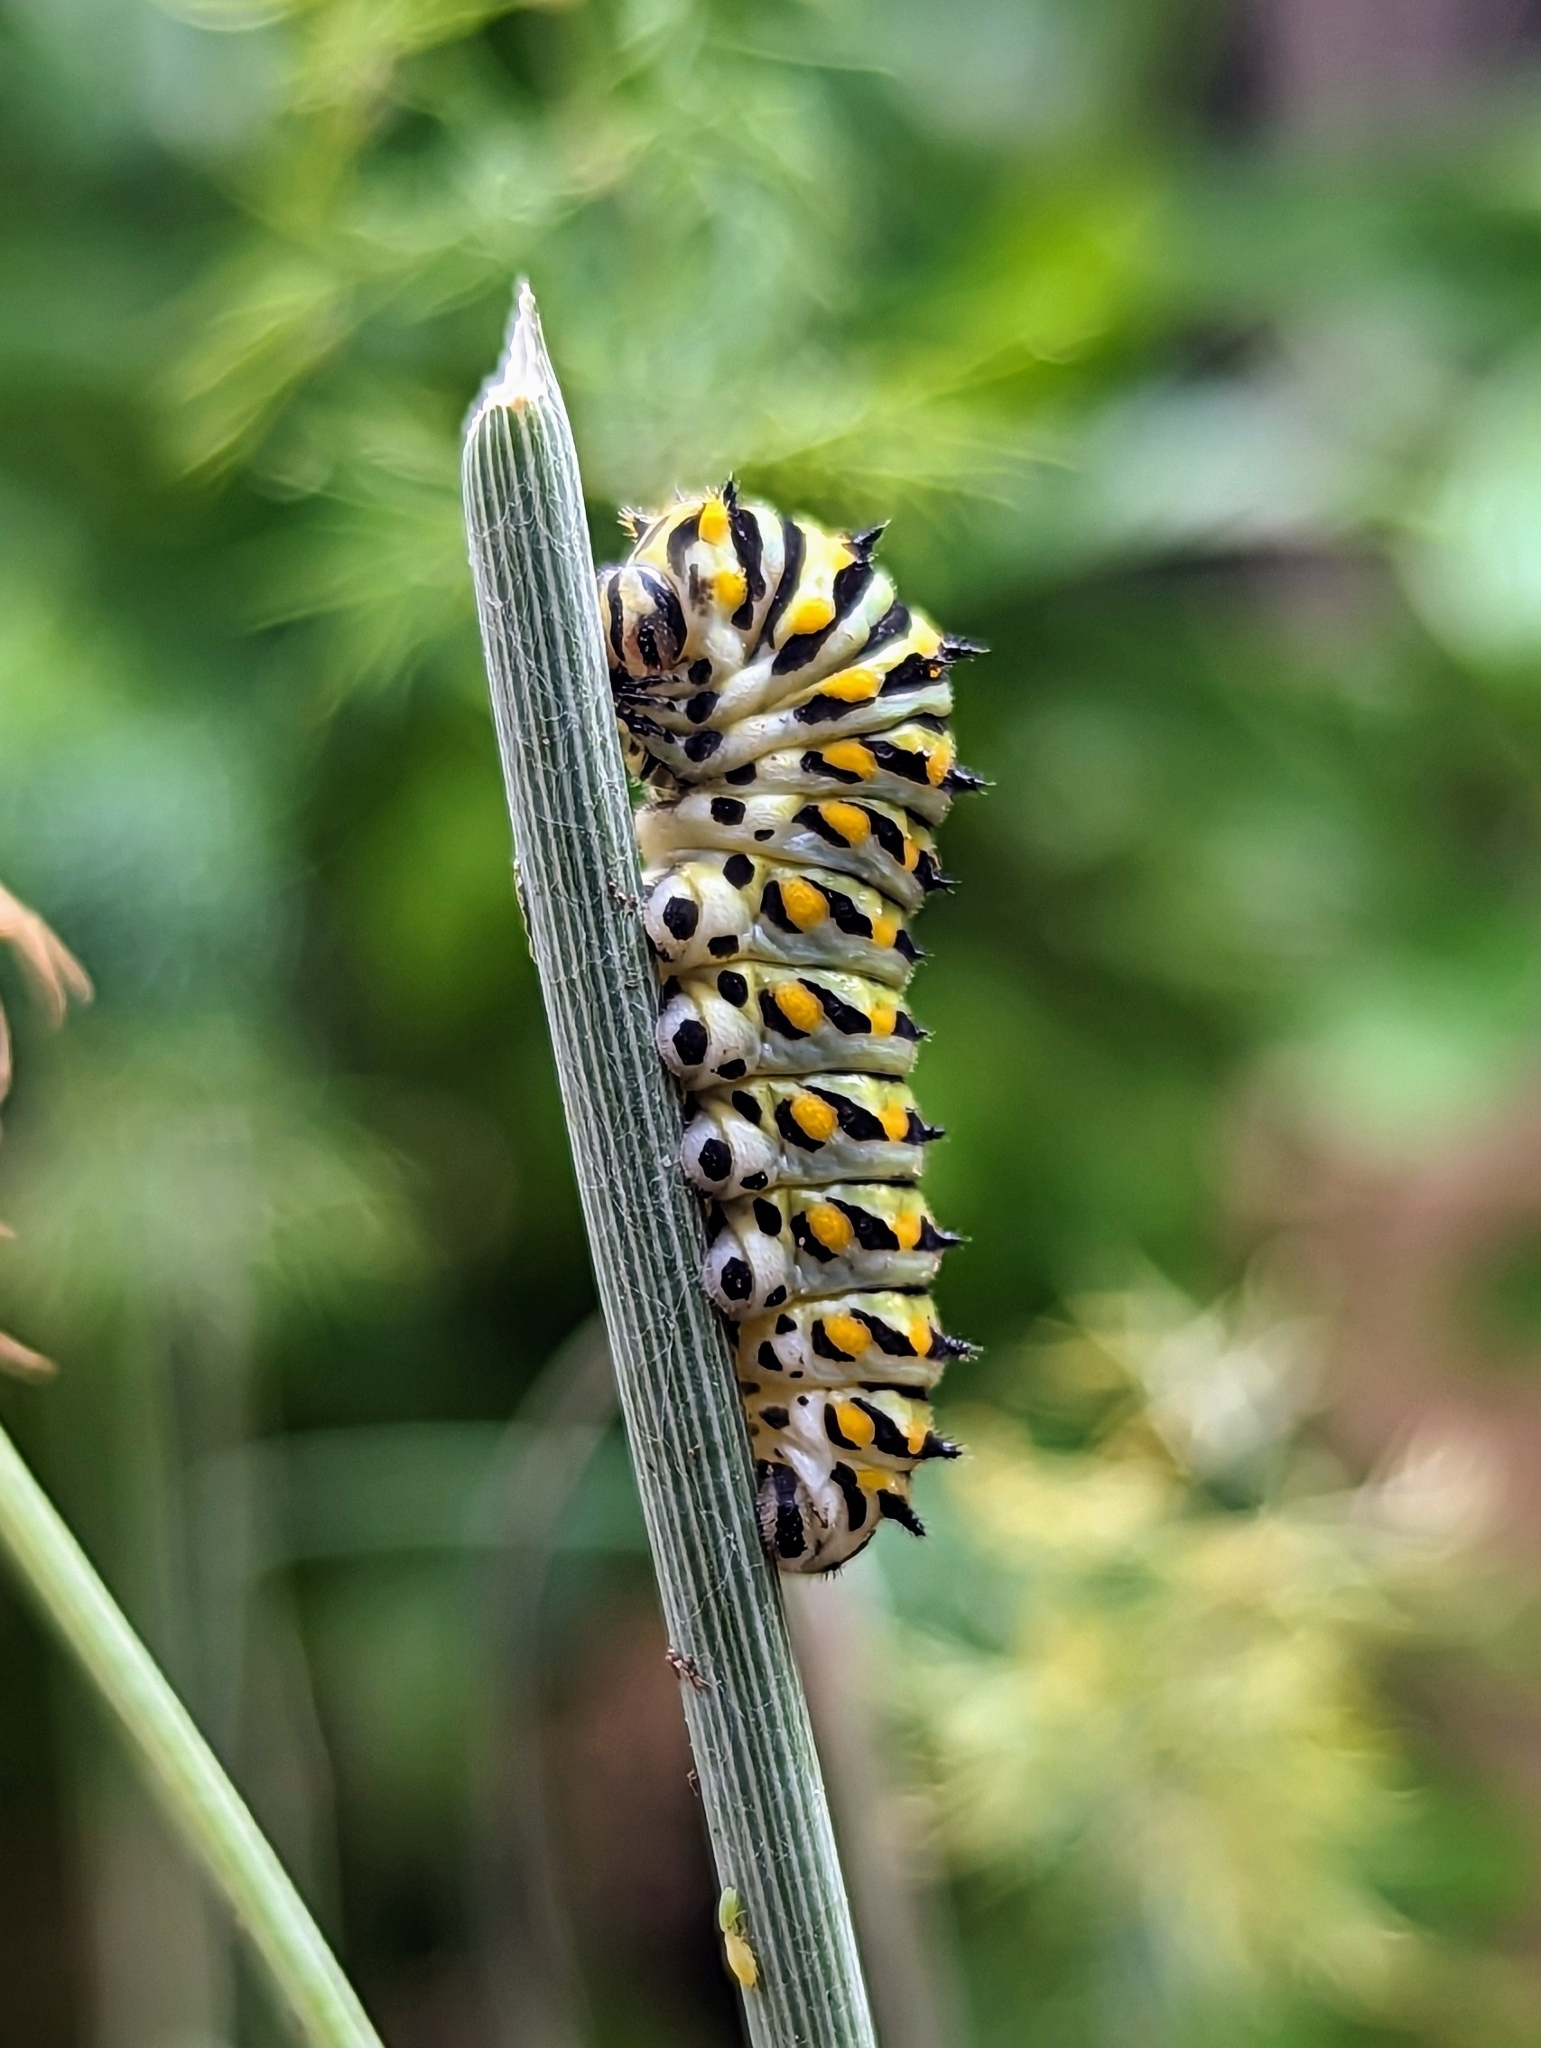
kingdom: Animalia
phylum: Arthropoda
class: Insecta
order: Lepidoptera
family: Papilionidae
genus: Papilio
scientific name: Papilio polyxenes
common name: Black swallowtail
